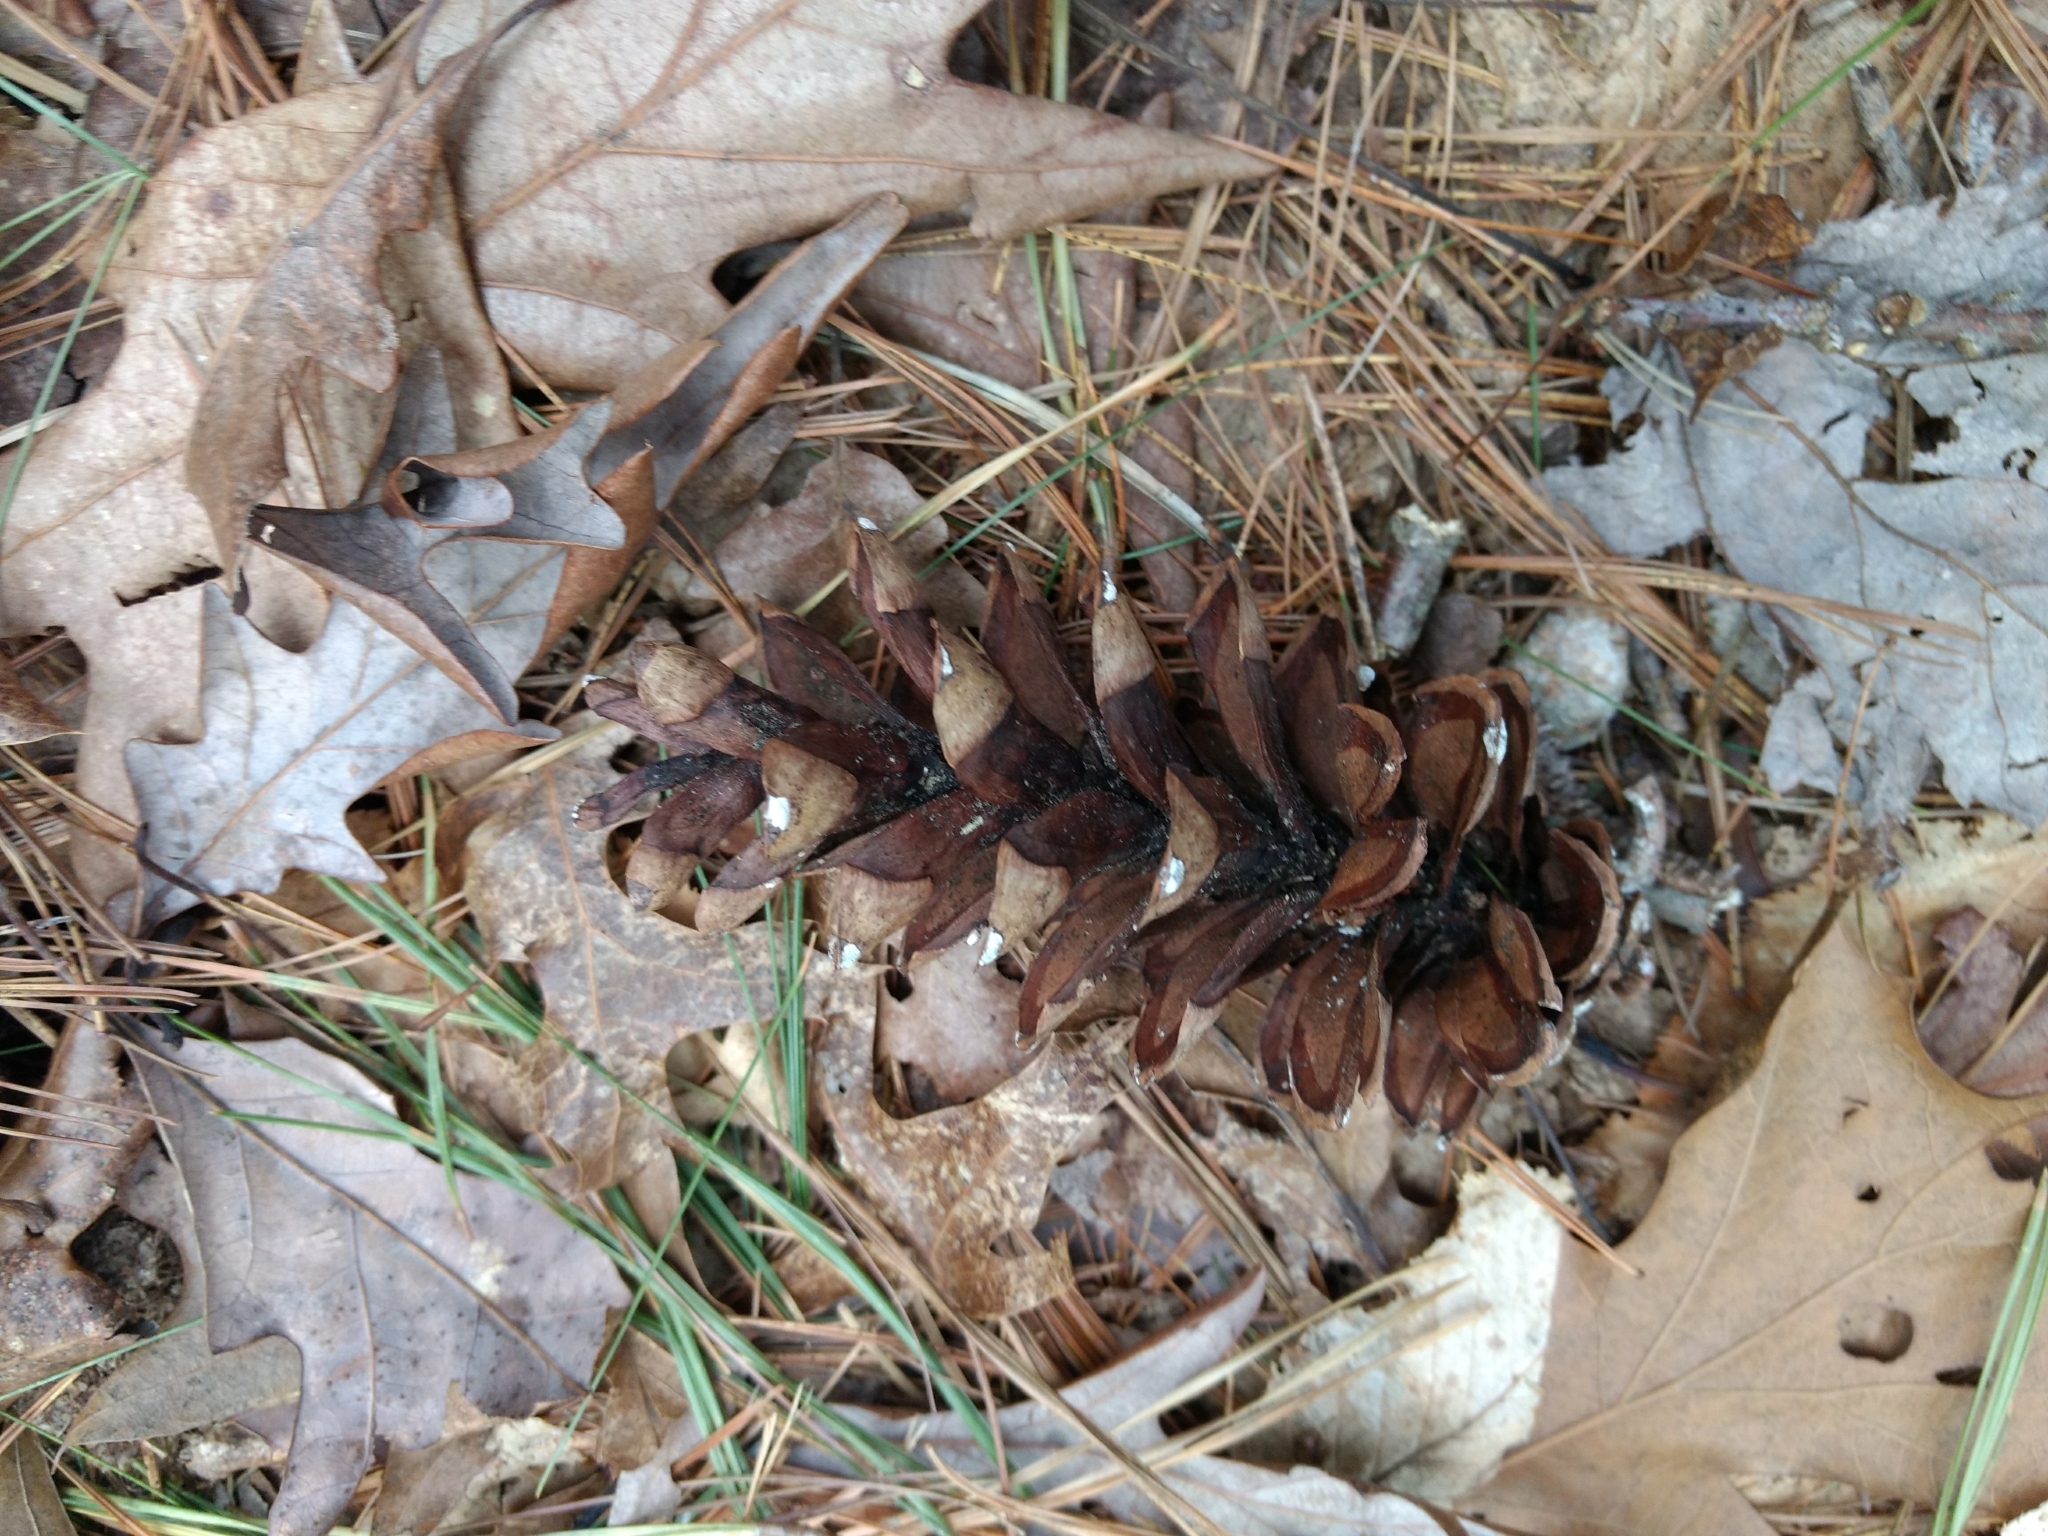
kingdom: Plantae
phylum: Tracheophyta
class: Pinopsida
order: Pinales
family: Pinaceae
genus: Pinus
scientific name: Pinus strobus
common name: Weymouth pine
